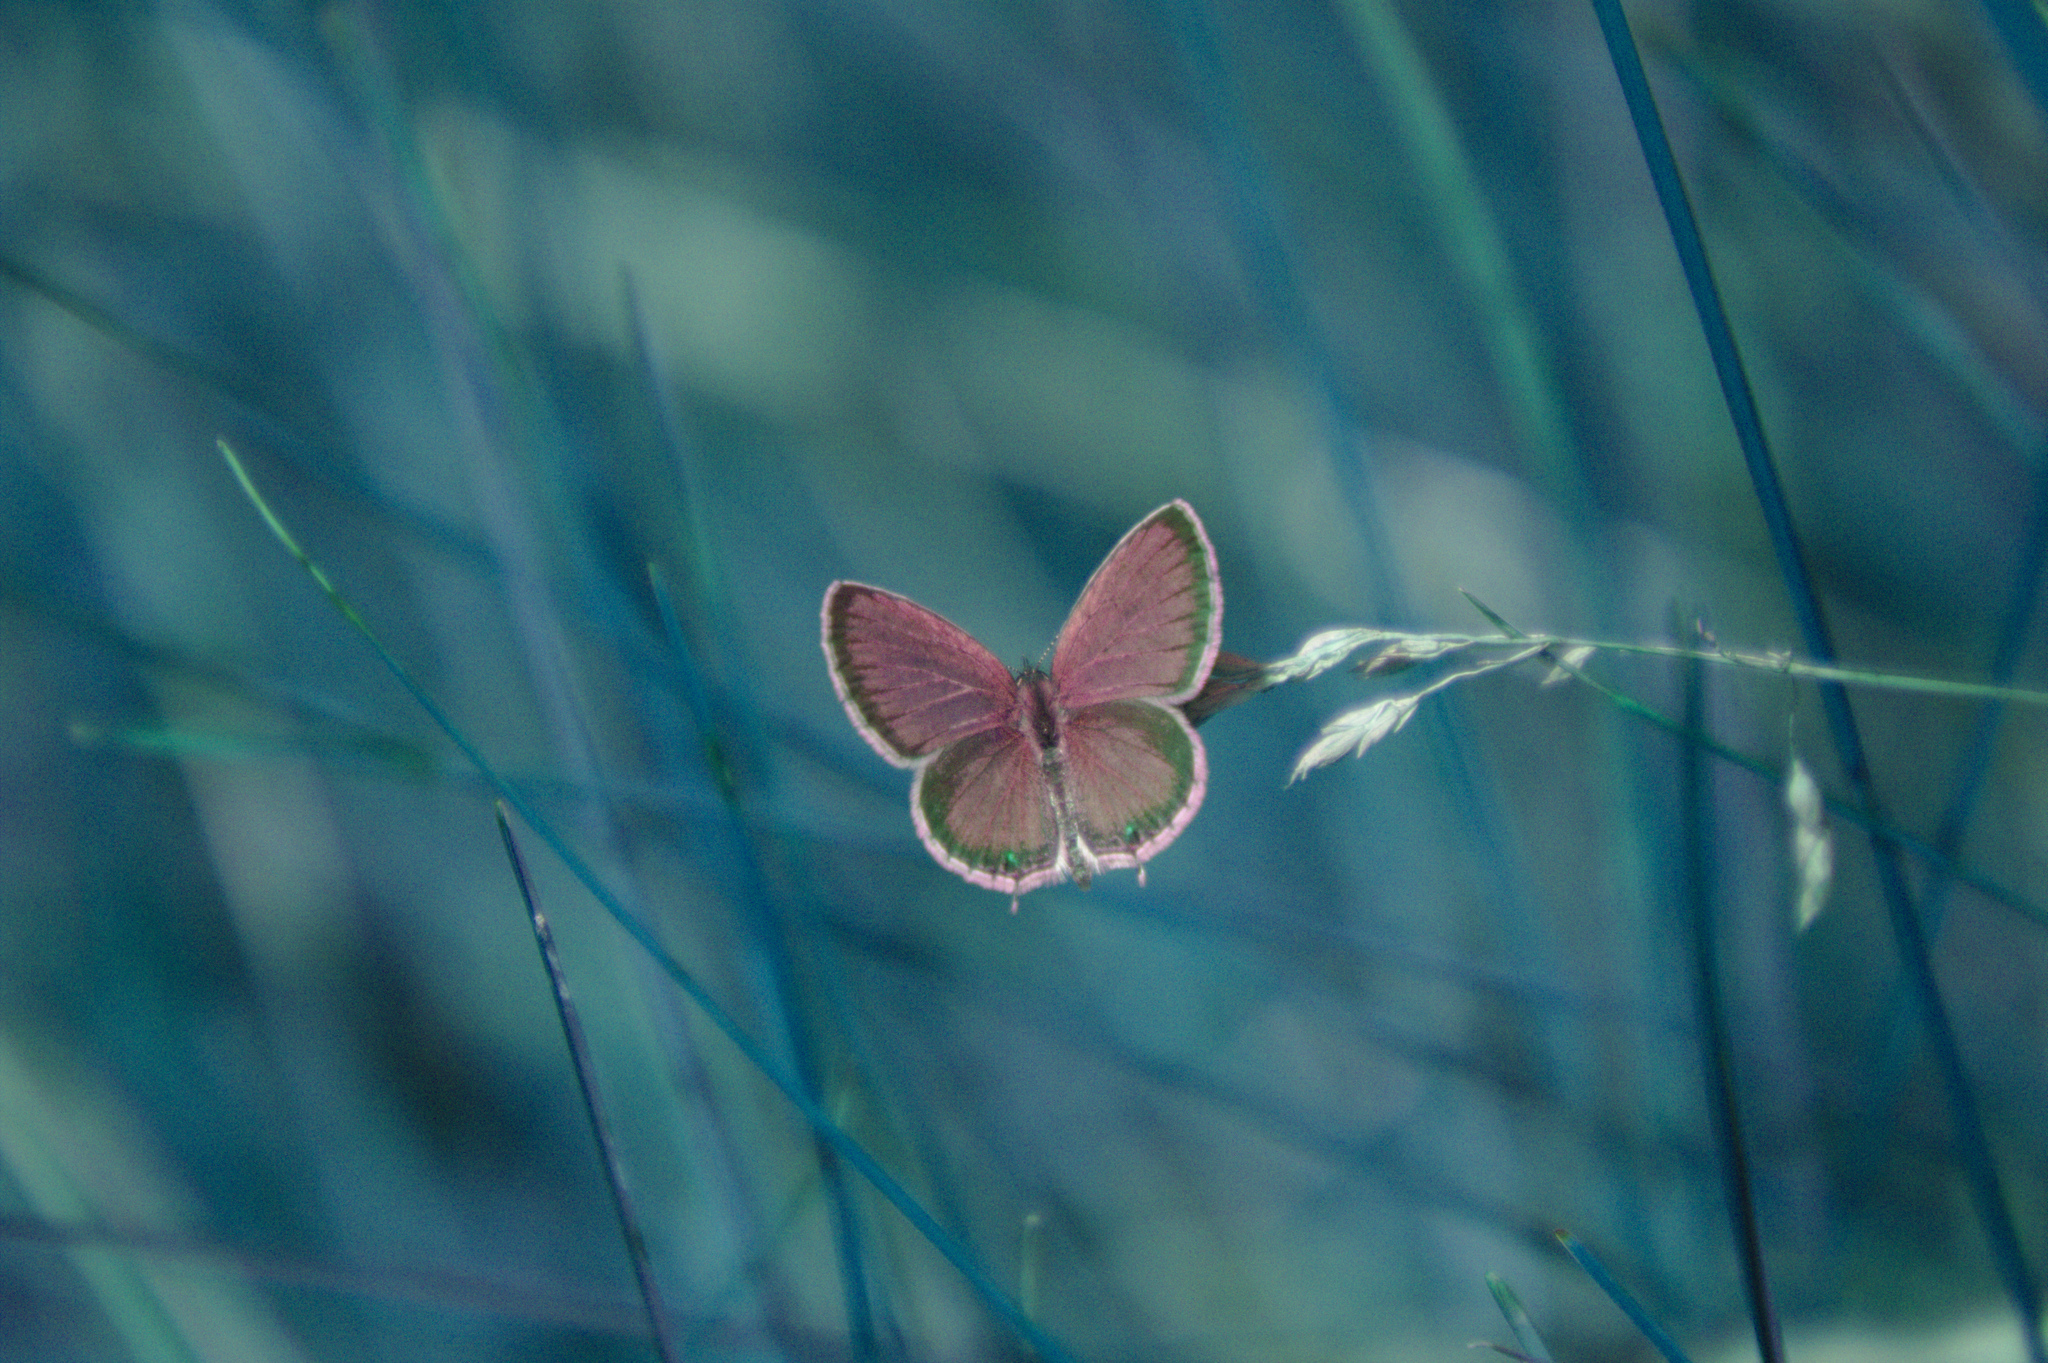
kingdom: Animalia
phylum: Arthropoda
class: Insecta
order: Lepidoptera
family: Lycaenidae
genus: Elkalyce
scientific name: Elkalyce comyntas
